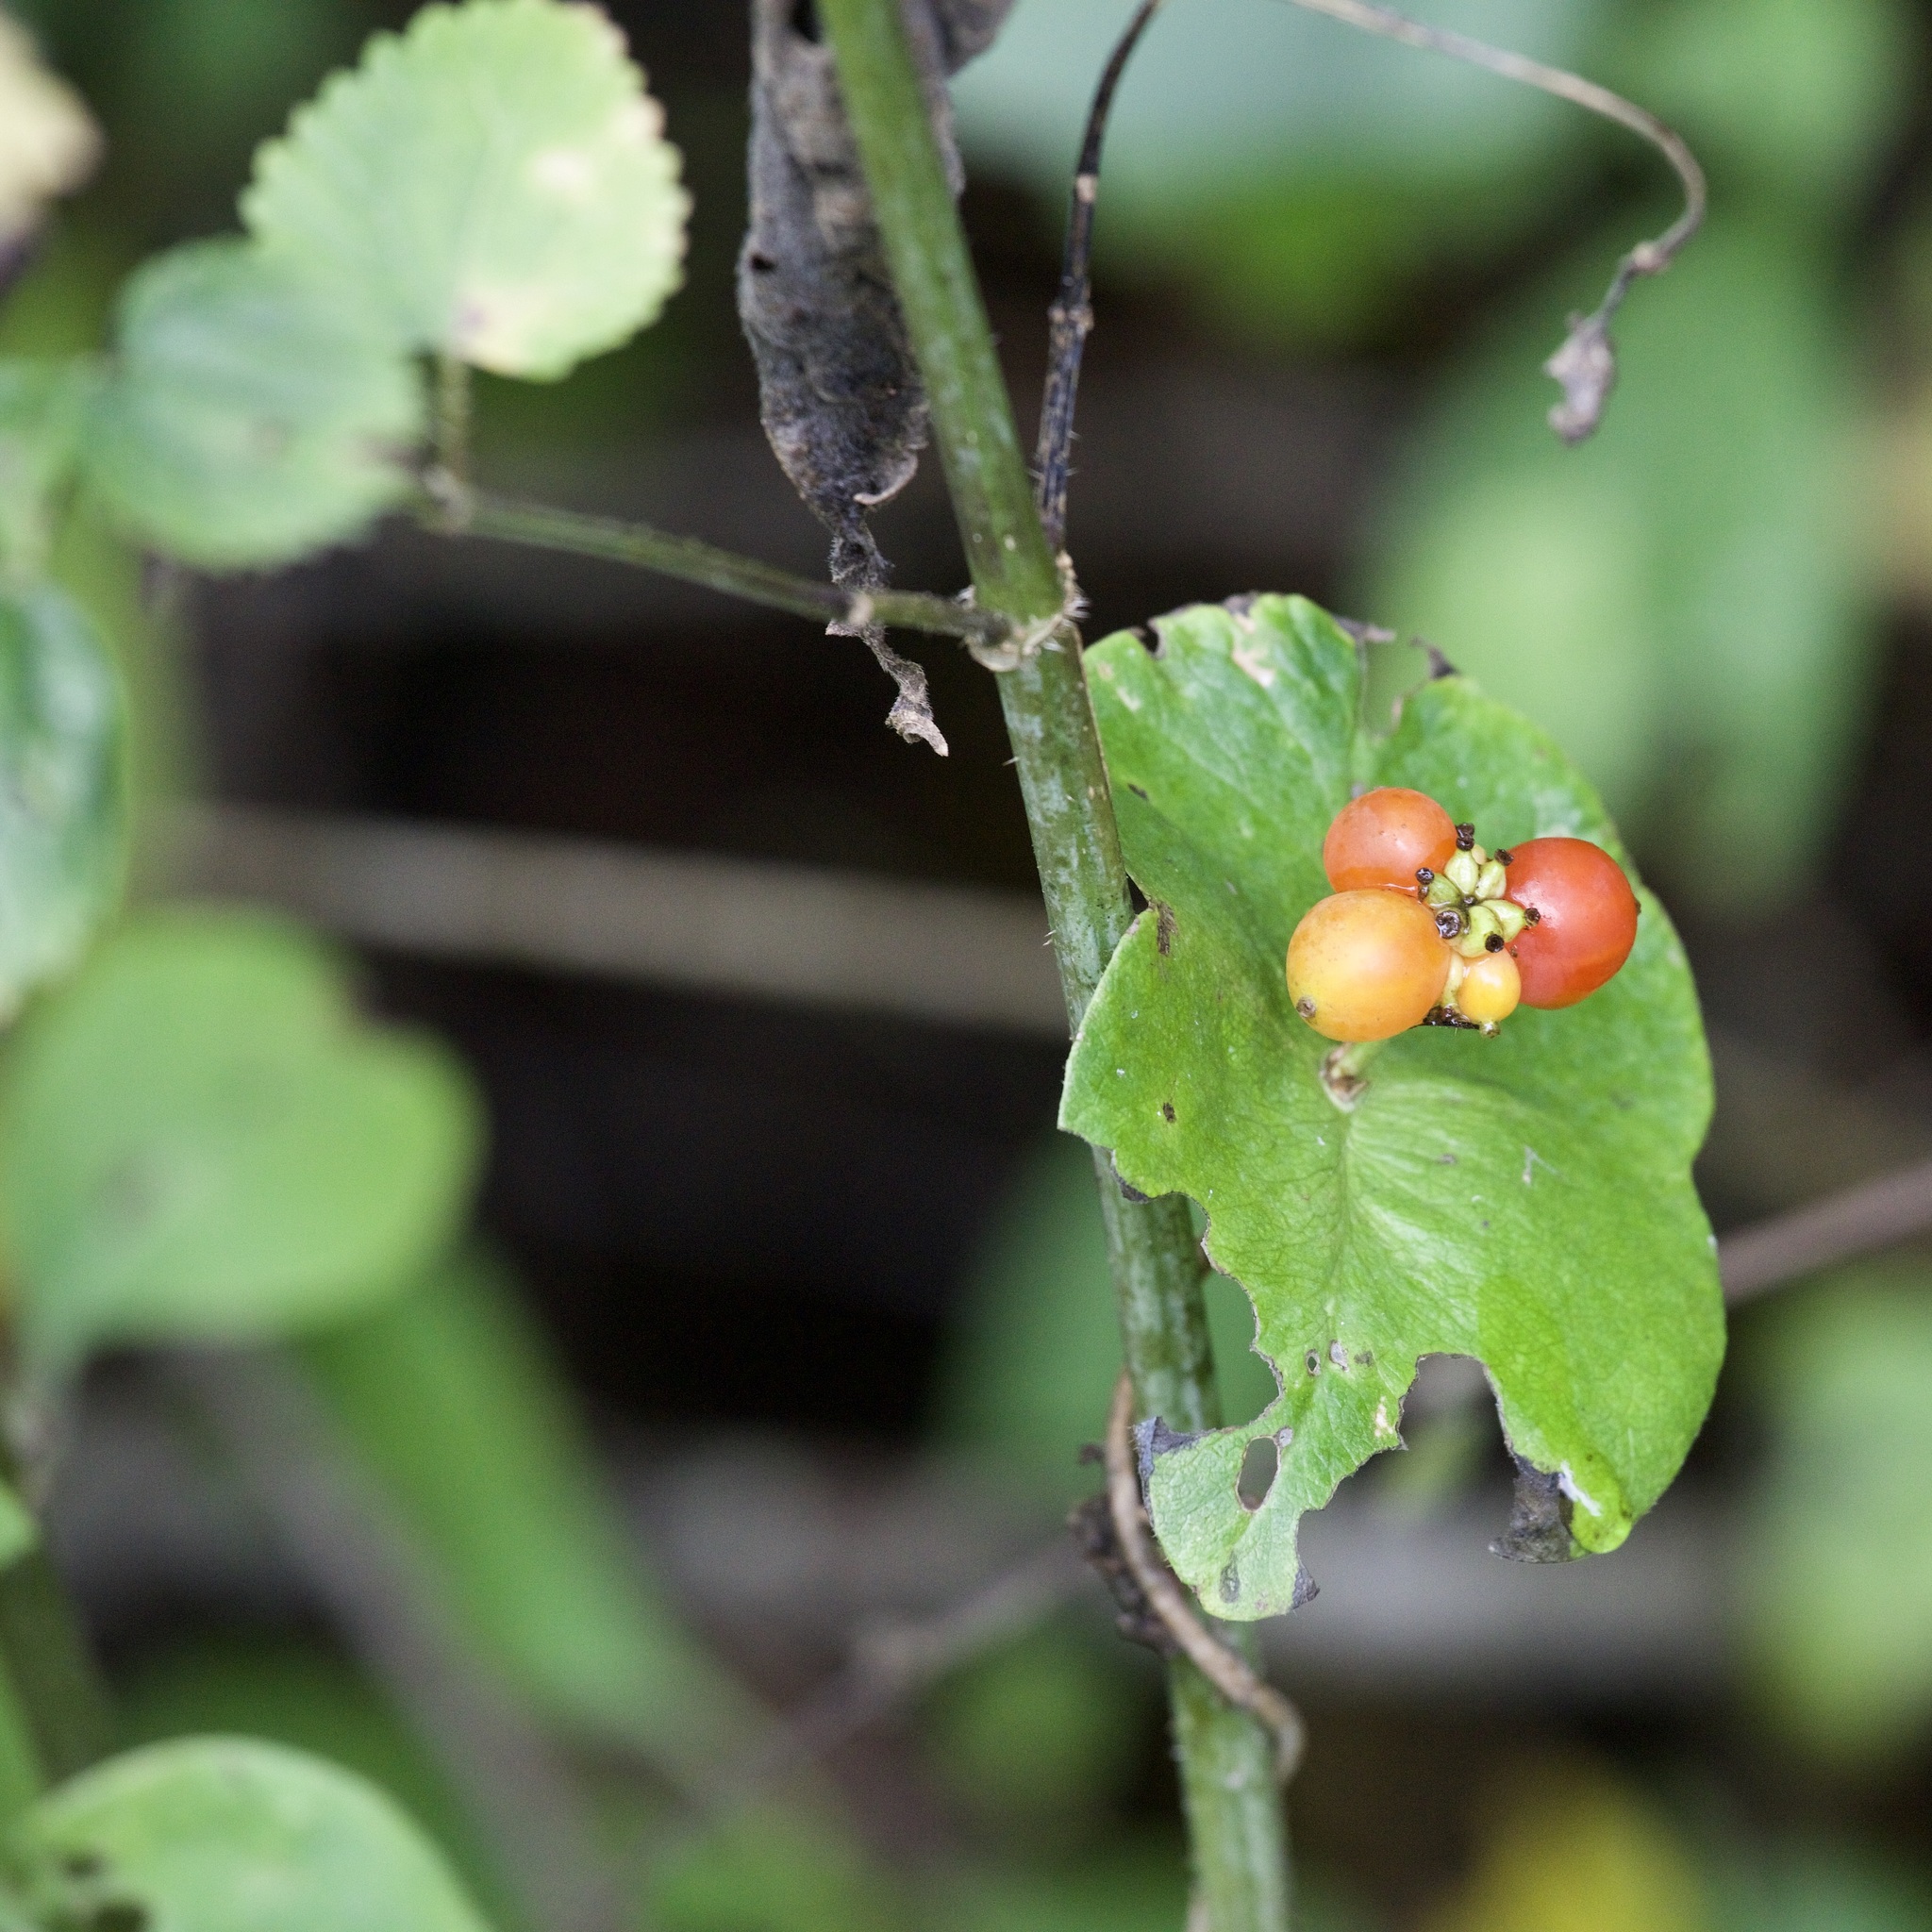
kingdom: Plantae
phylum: Tracheophyta
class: Magnoliopsida
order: Dipsacales
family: Caprifoliaceae
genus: Lonicera
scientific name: Lonicera ciliosa
